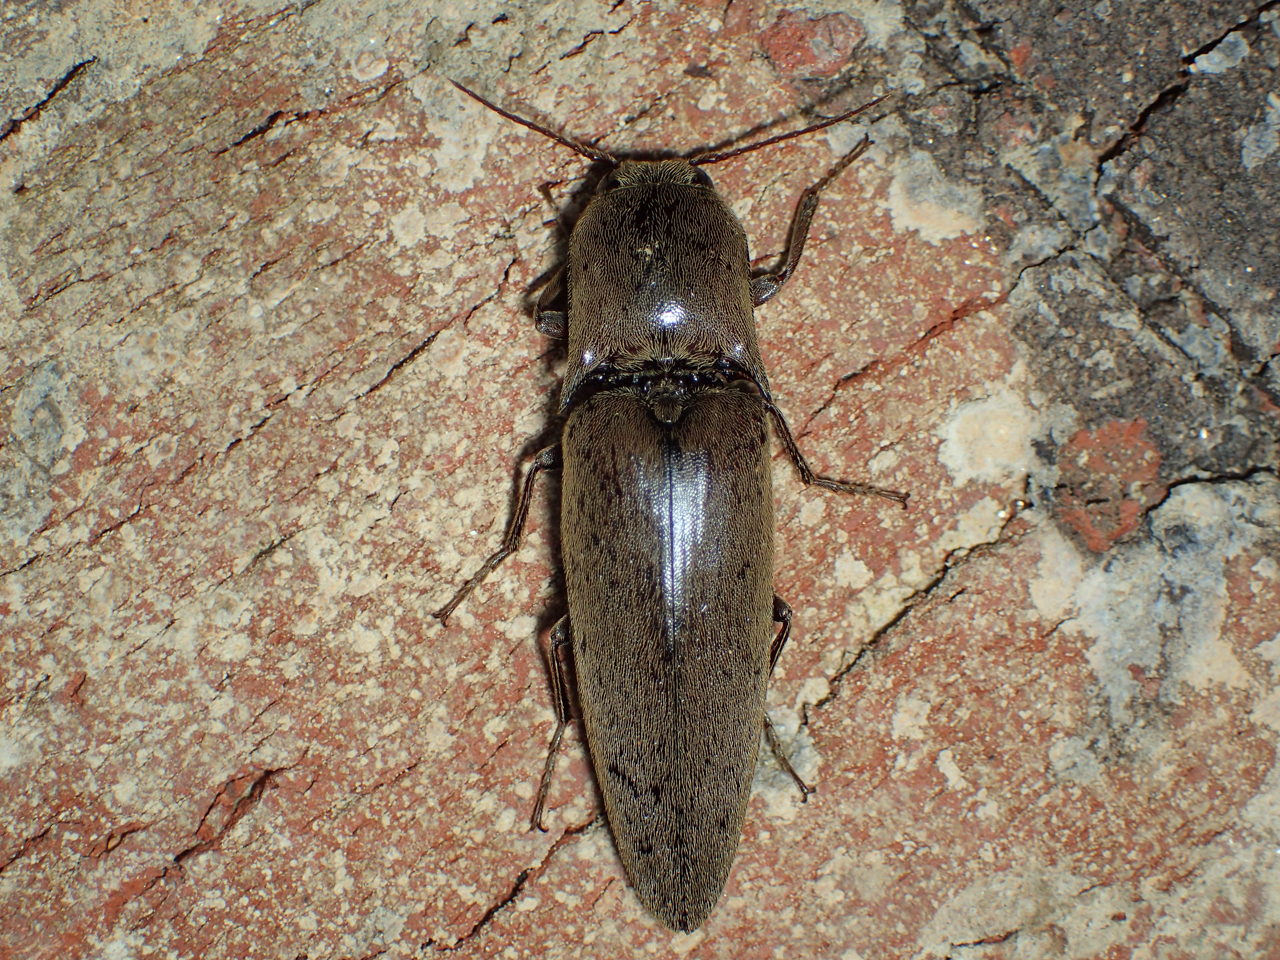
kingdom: Animalia
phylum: Arthropoda
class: Insecta
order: Coleoptera
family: Elateridae
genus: Orthostethus
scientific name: Orthostethus infuscatus
